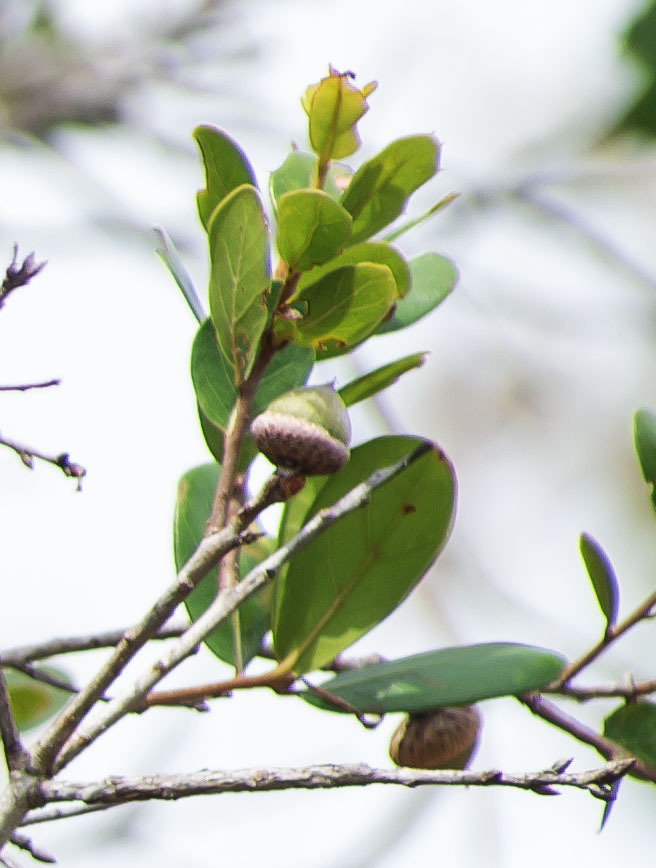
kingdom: Plantae
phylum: Tracheophyta
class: Magnoliopsida
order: Fagales
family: Fagaceae
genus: Quercus
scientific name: Quercus myrtifolia
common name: Myrtle oak
